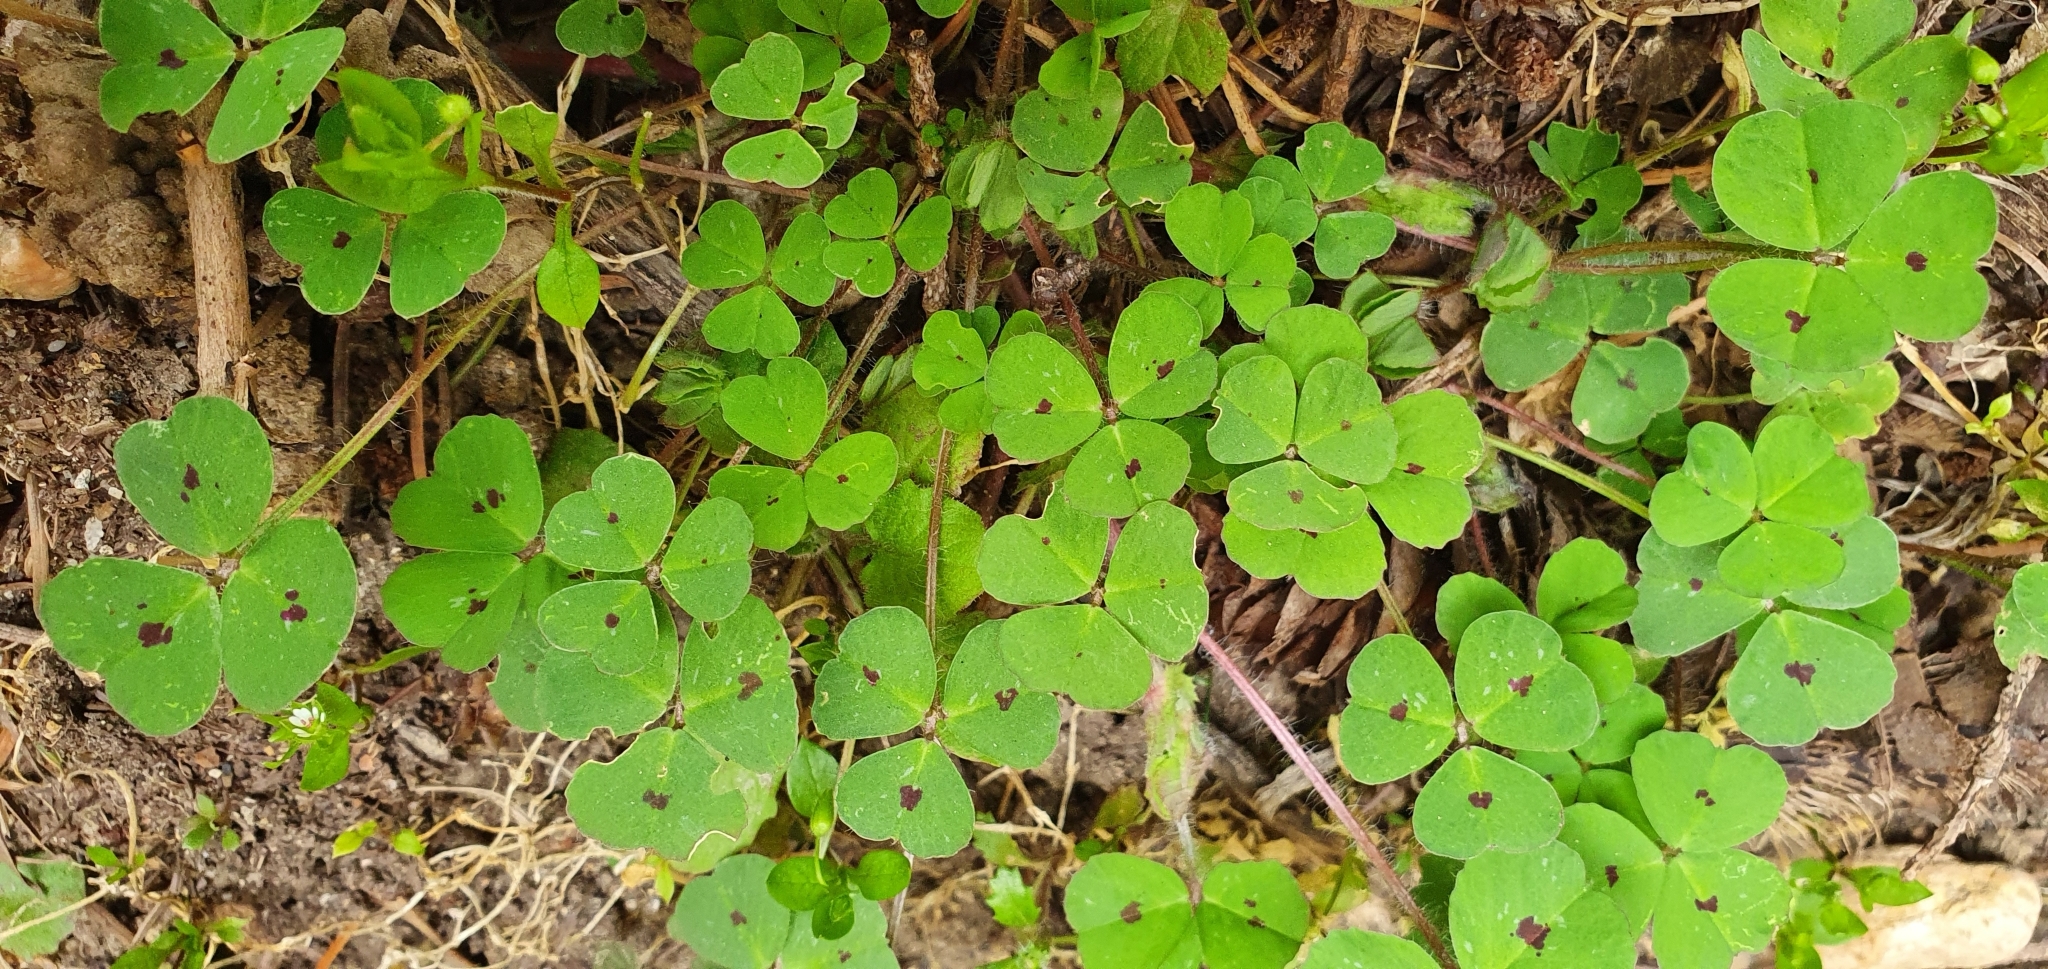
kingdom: Plantae
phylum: Tracheophyta
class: Magnoliopsida
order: Fabales
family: Fabaceae
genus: Medicago
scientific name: Medicago arabica
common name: Spotted medick
